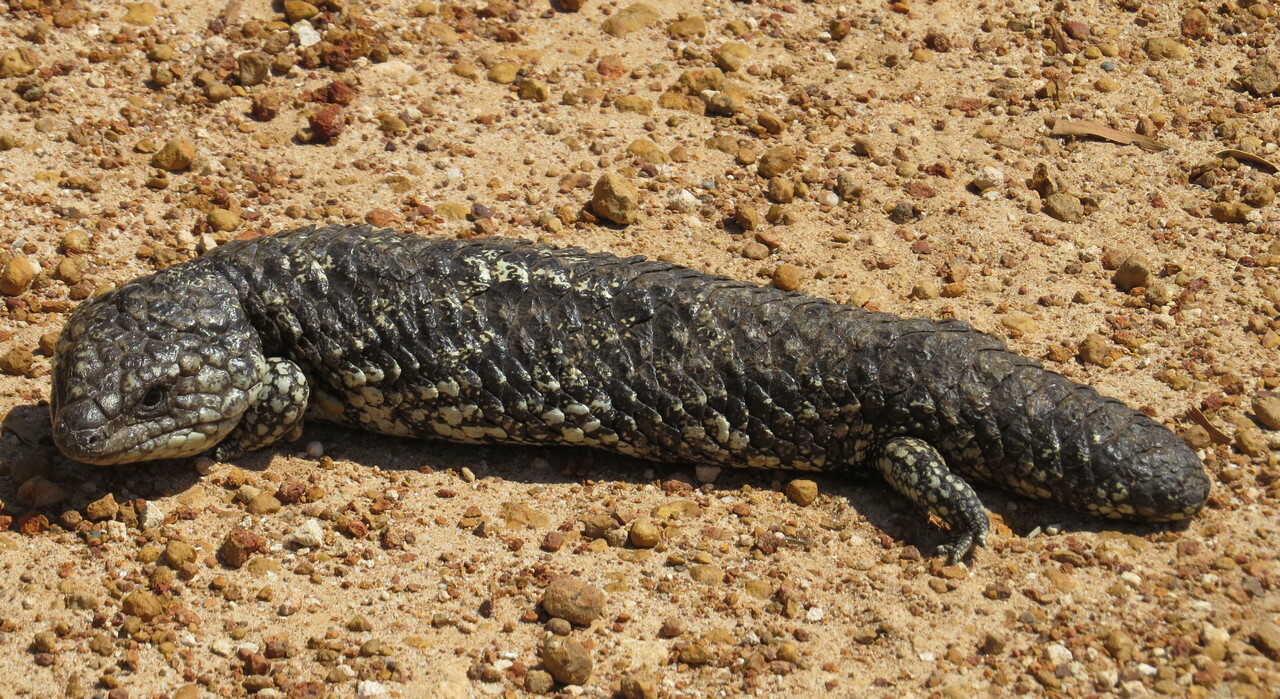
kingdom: Animalia
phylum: Chordata
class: Squamata
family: Scincidae
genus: Tiliqua
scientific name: Tiliqua rugosa
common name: Pinecone lizard
